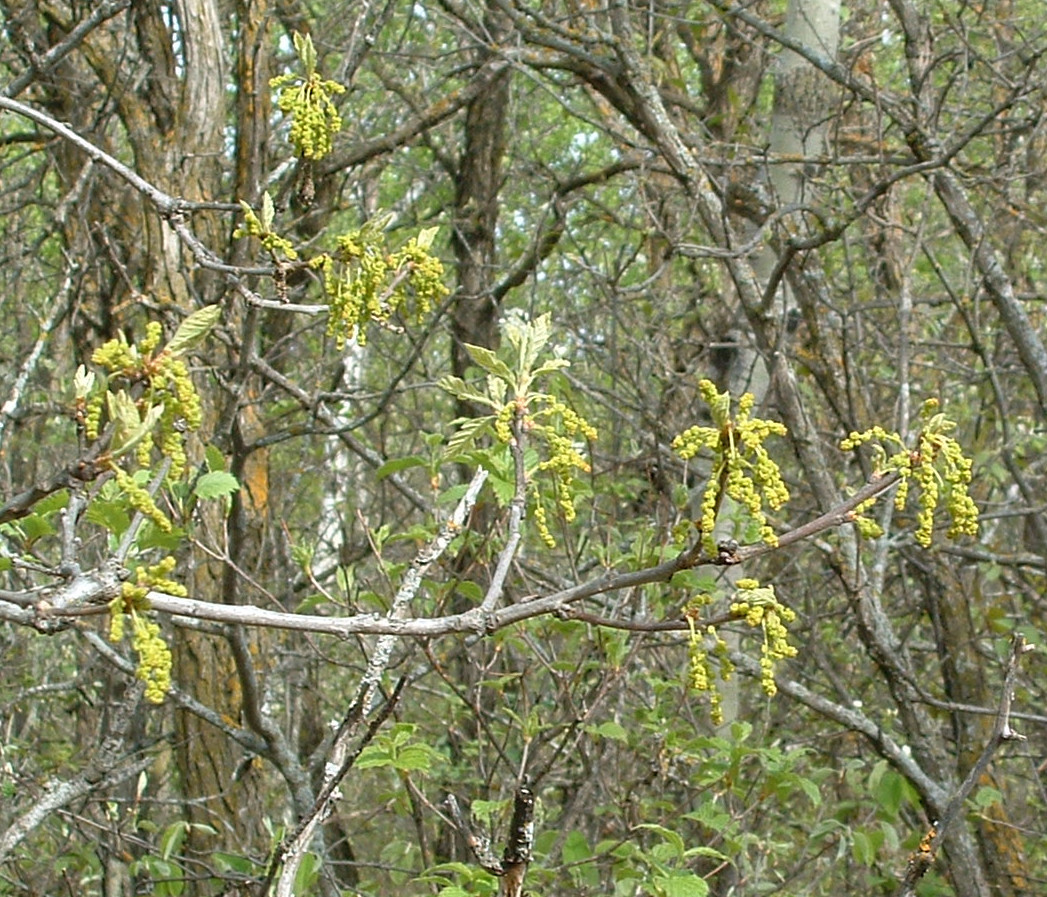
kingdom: Plantae
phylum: Tracheophyta
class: Magnoliopsida
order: Fagales
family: Fagaceae
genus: Quercus
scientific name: Quercus macrocarpa
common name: Bur oak
